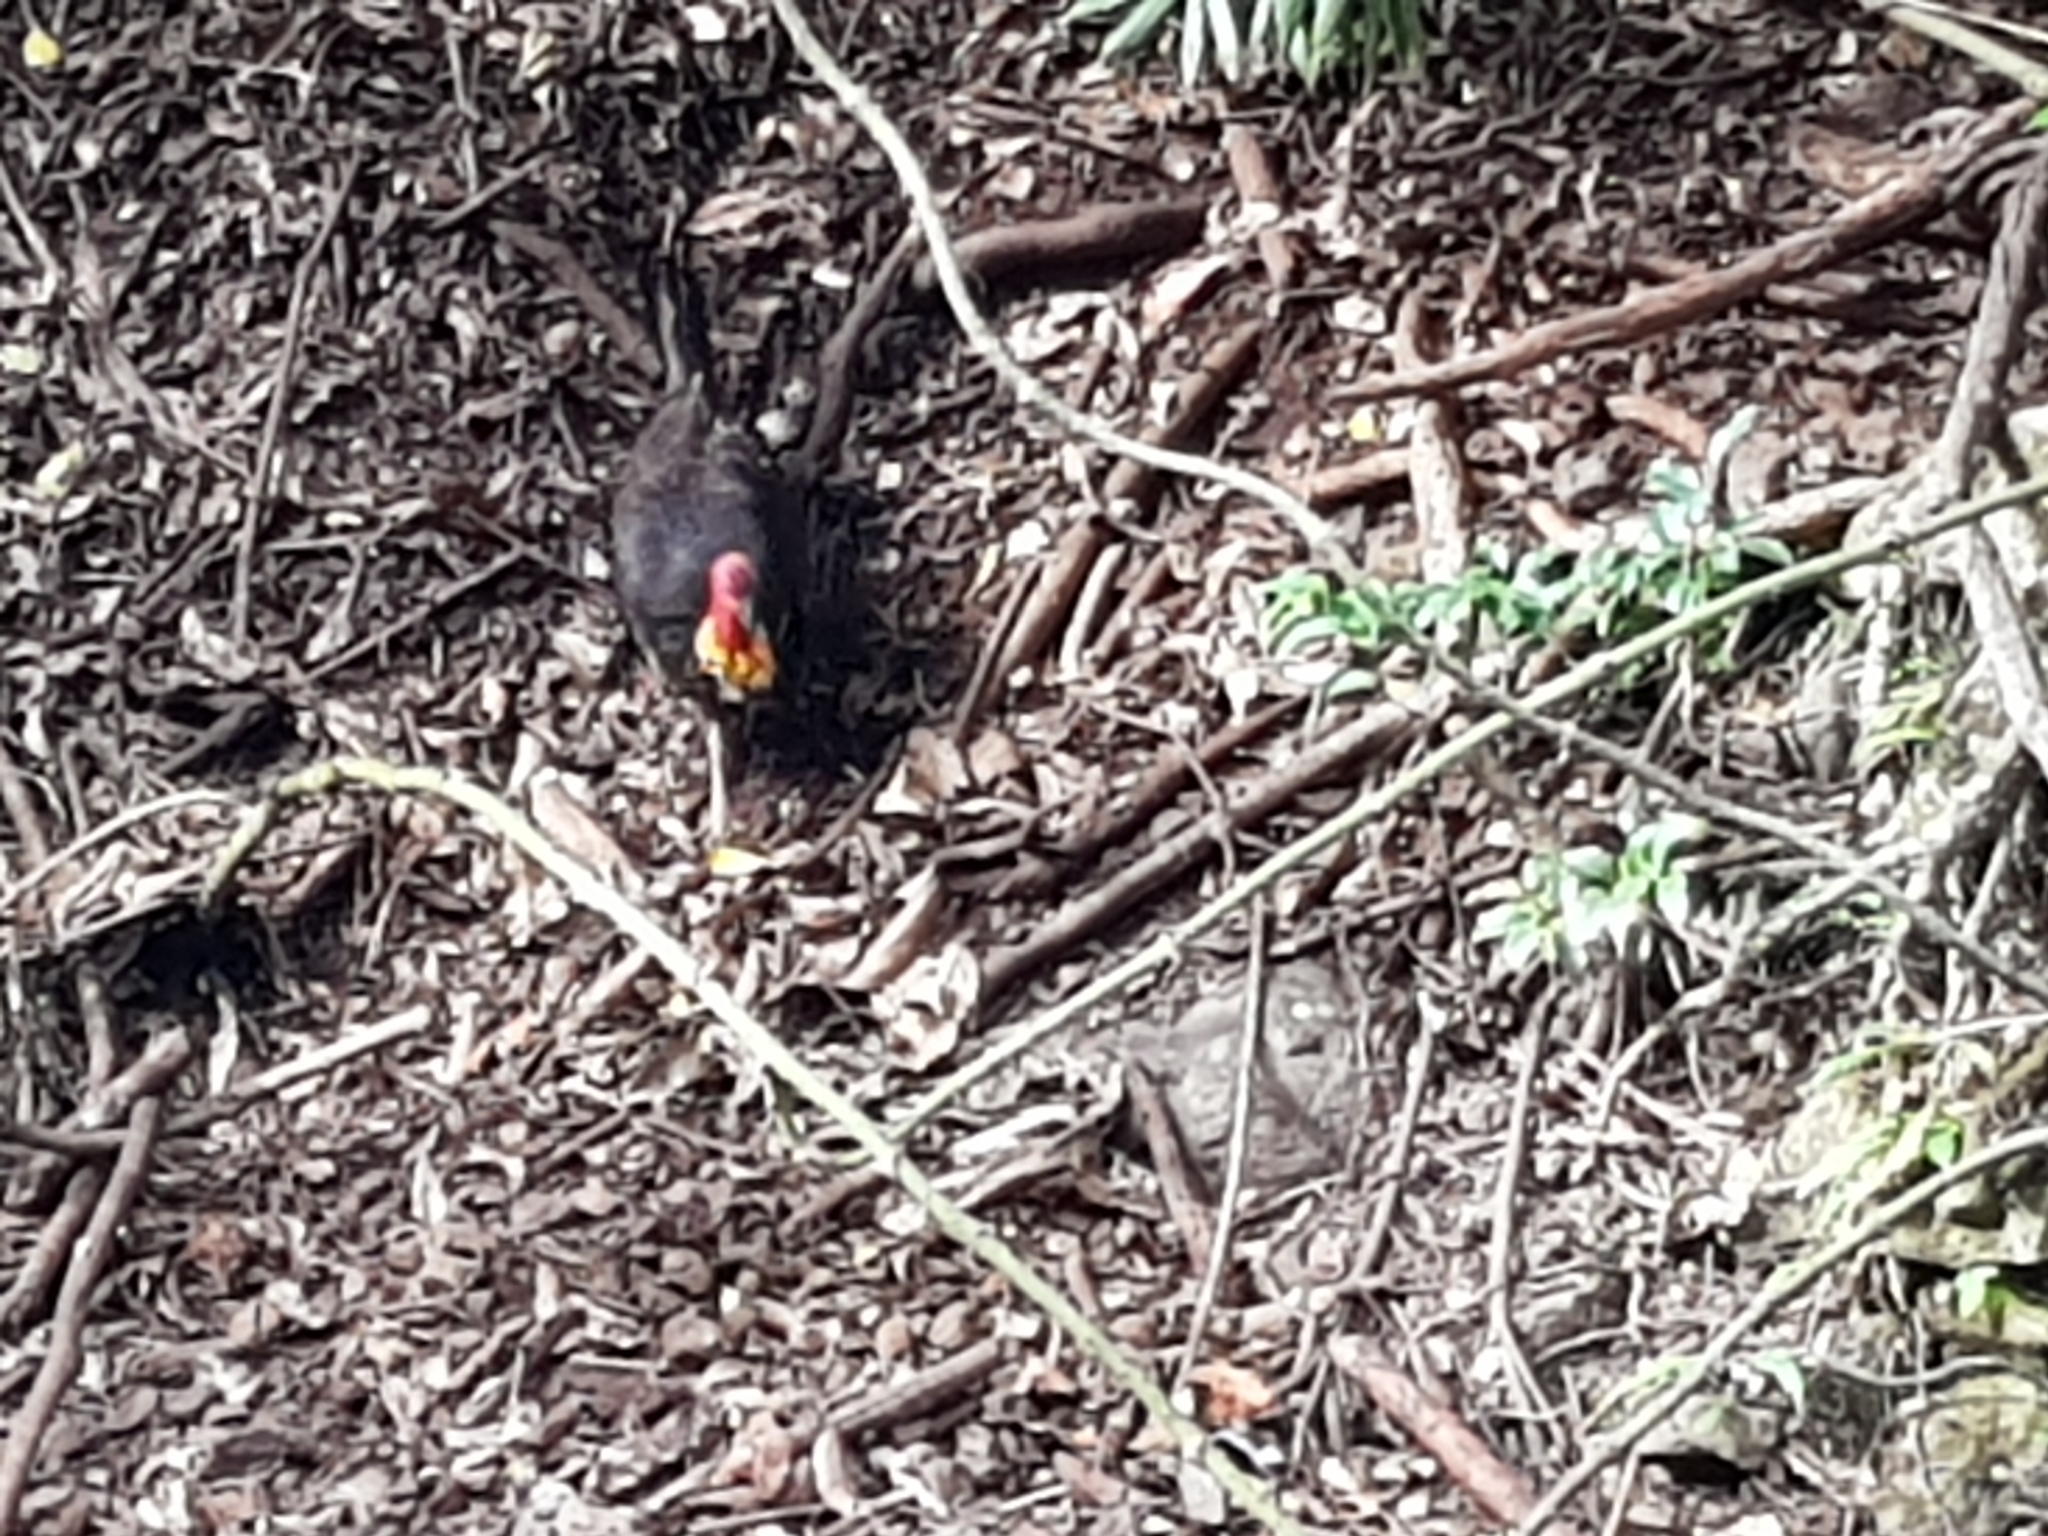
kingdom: Animalia
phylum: Chordata
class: Aves
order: Galliformes
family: Megapodiidae
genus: Alectura
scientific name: Alectura lathami
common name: Australian brushturkey
